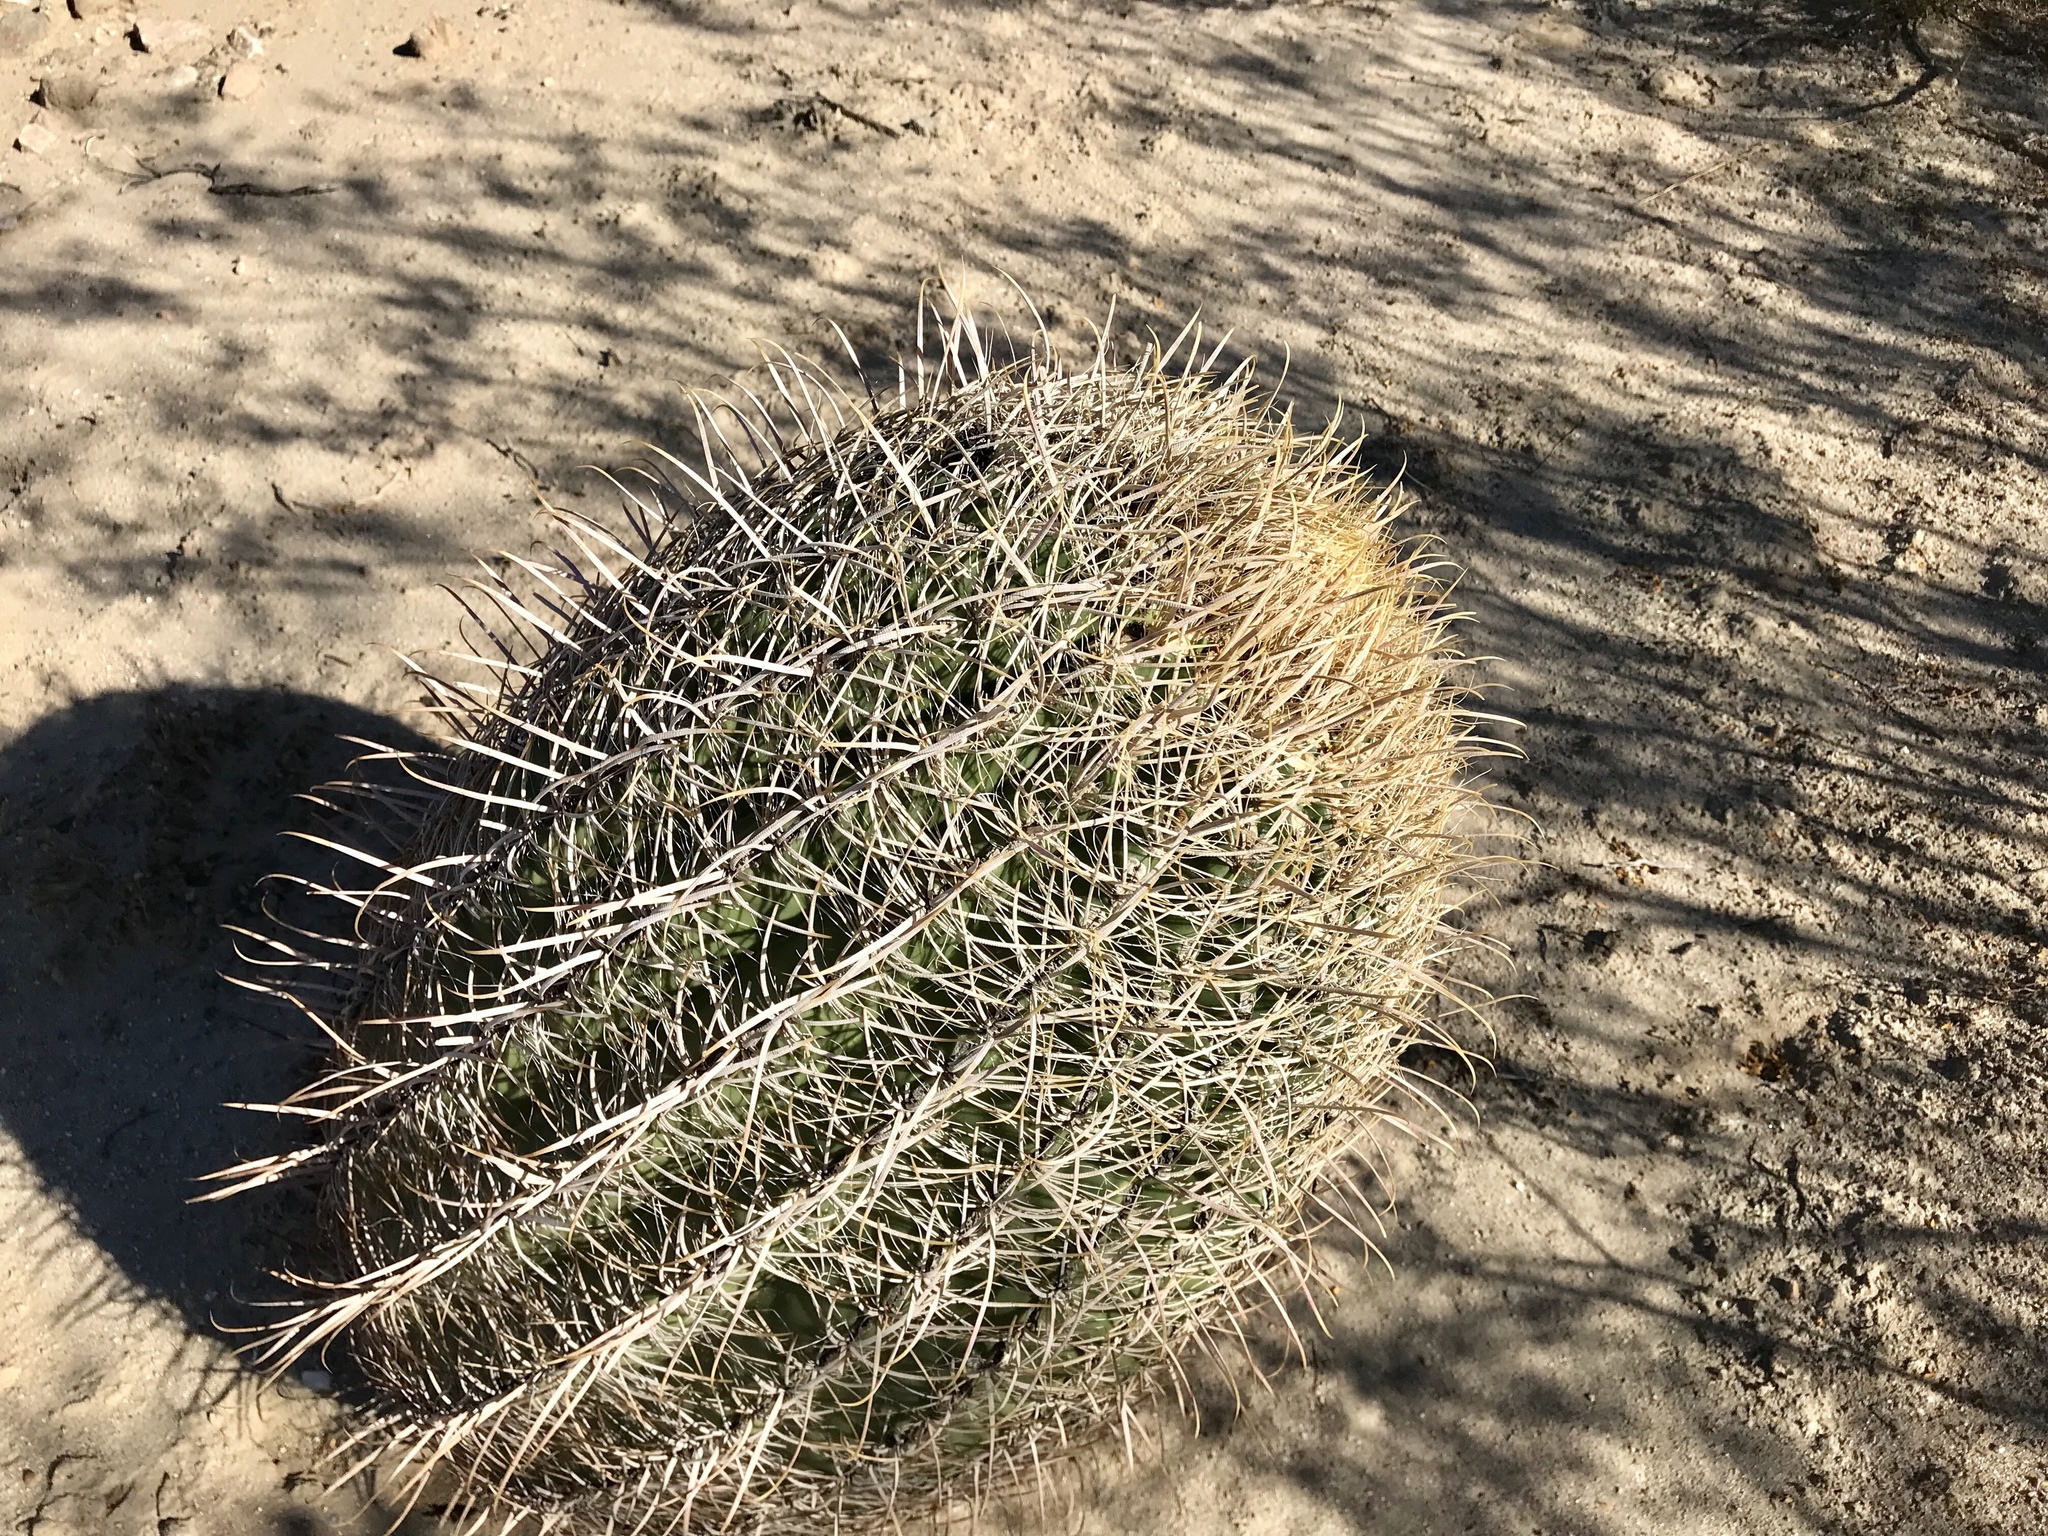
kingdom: Plantae
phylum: Tracheophyta
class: Magnoliopsida
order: Caryophyllales
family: Cactaceae
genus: Ferocactus
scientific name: Ferocactus cylindraceus
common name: California barrel cactus
